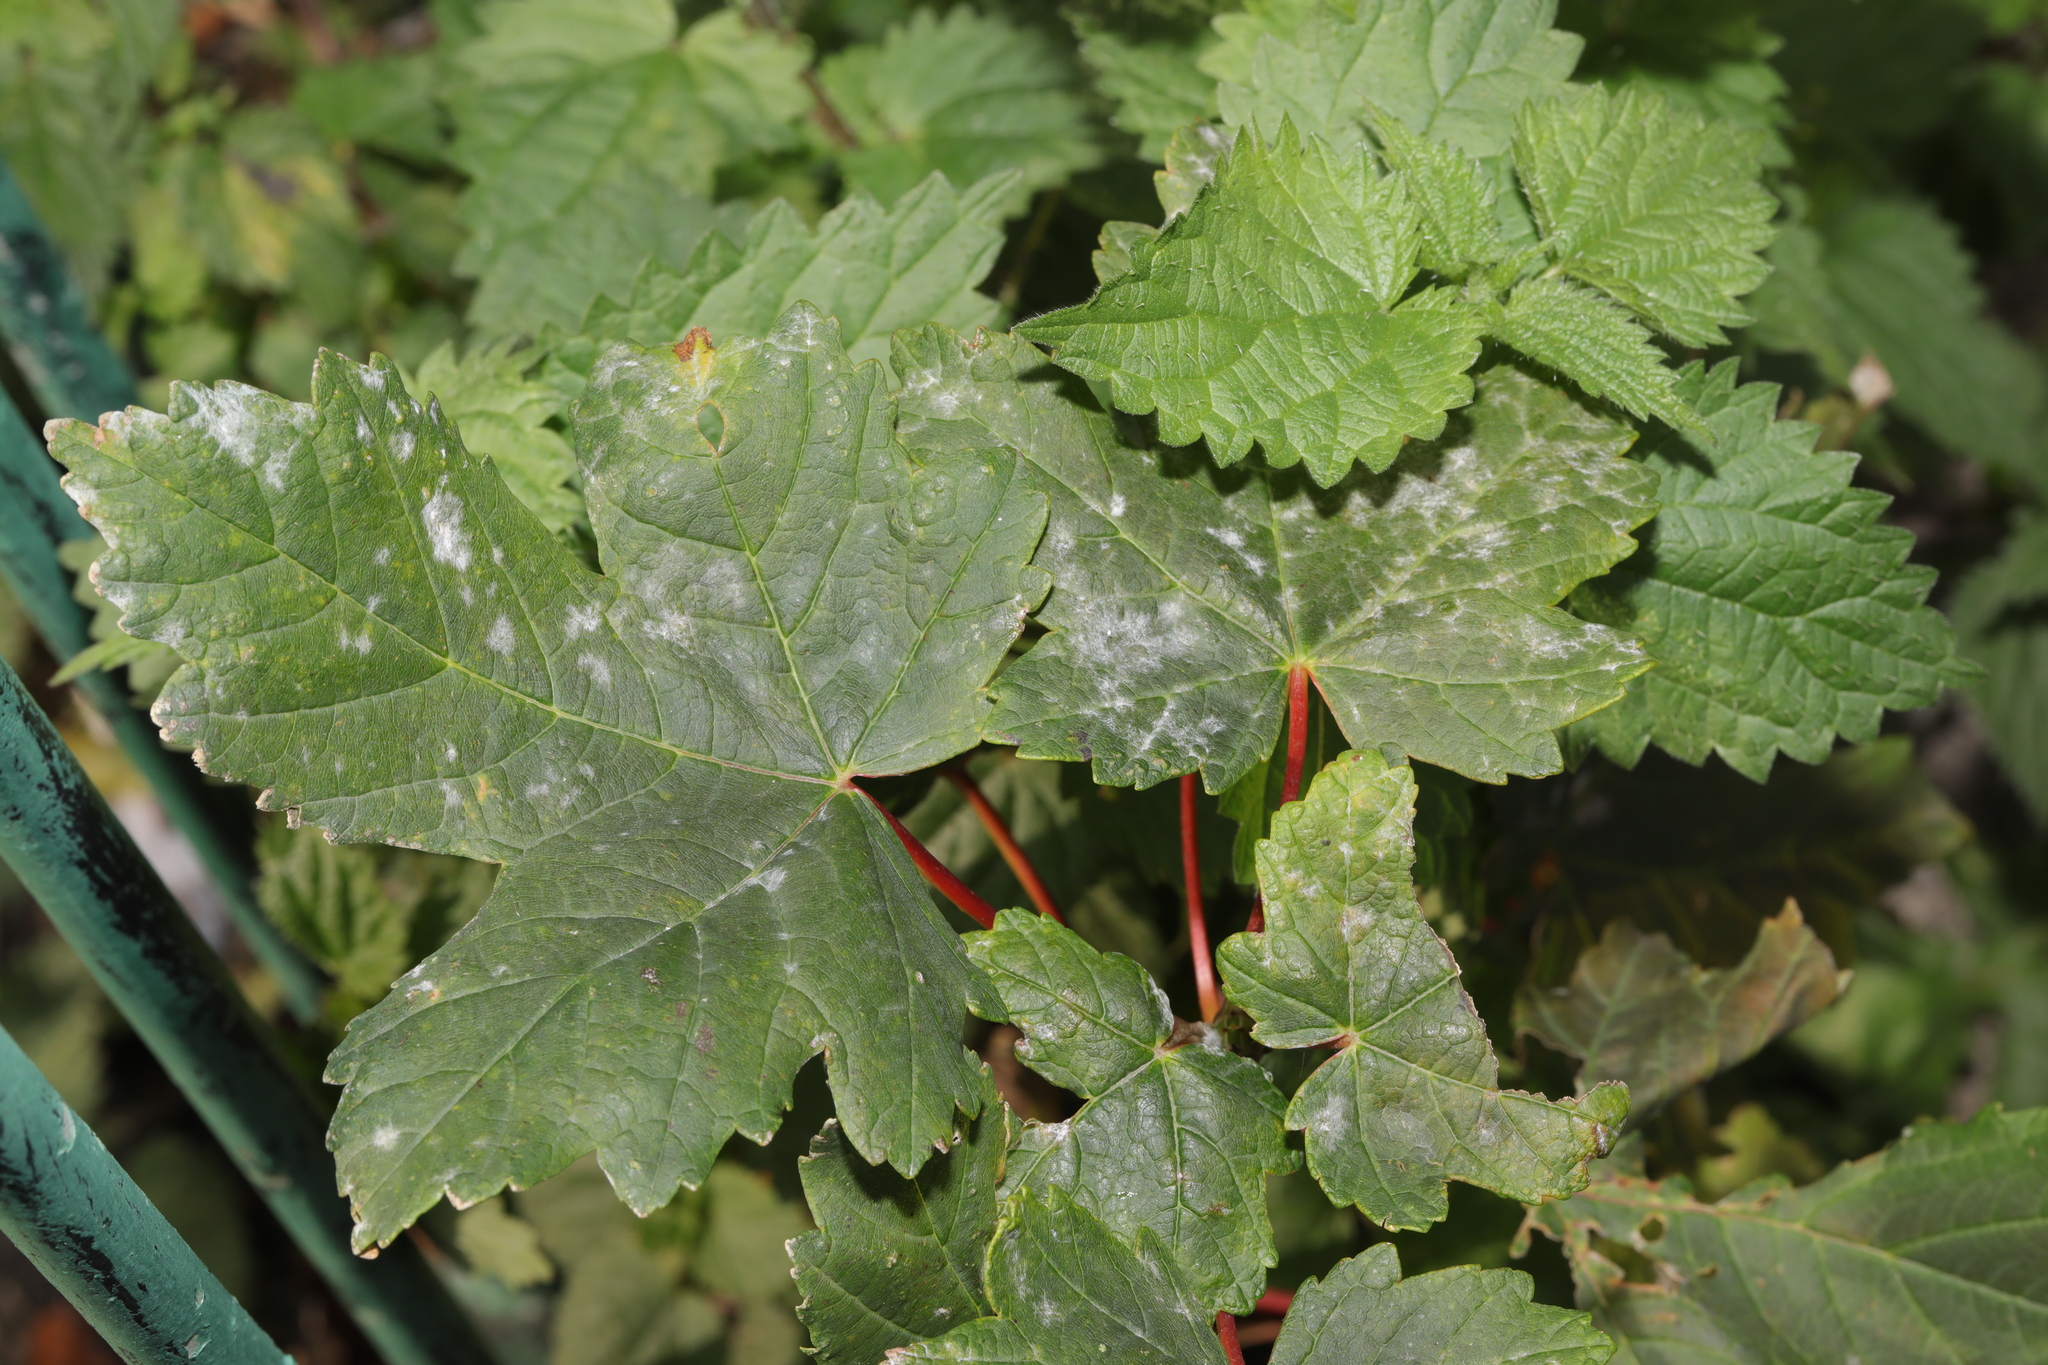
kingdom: Plantae
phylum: Tracheophyta
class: Magnoliopsida
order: Sapindales
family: Sapindaceae
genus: Acer
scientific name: Acer pseudoplatanus
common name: Sycamore
